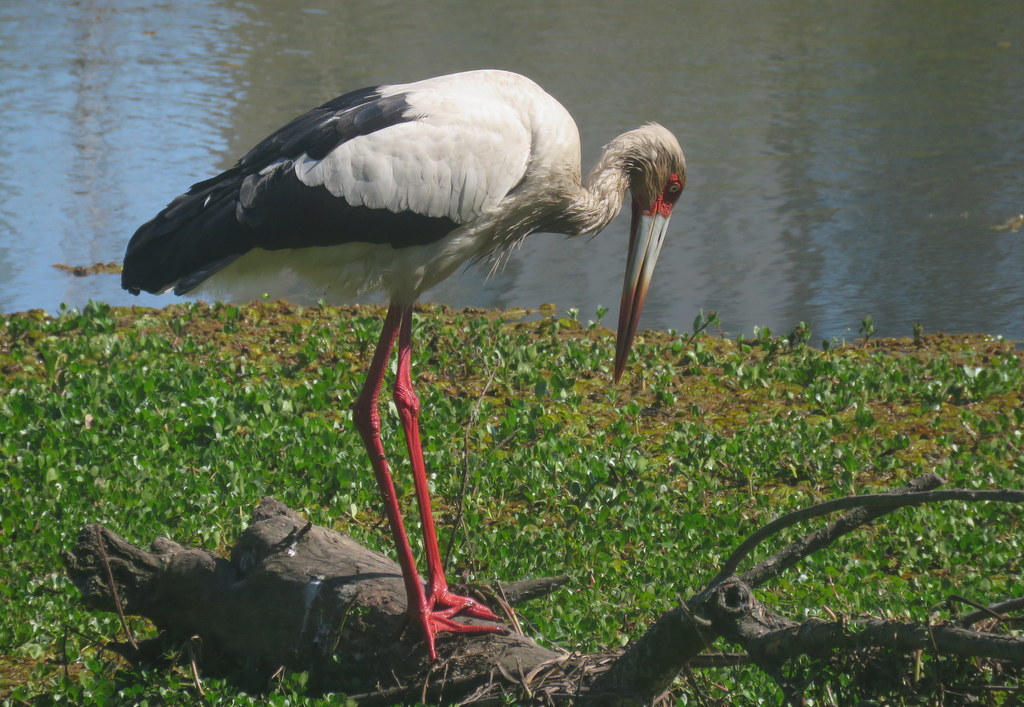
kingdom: Animalia
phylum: Chordata
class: Aves
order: Ciconiiformes
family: Ciconiidae
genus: Ciconia
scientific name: Ciconia maguari
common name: Maguari stork
